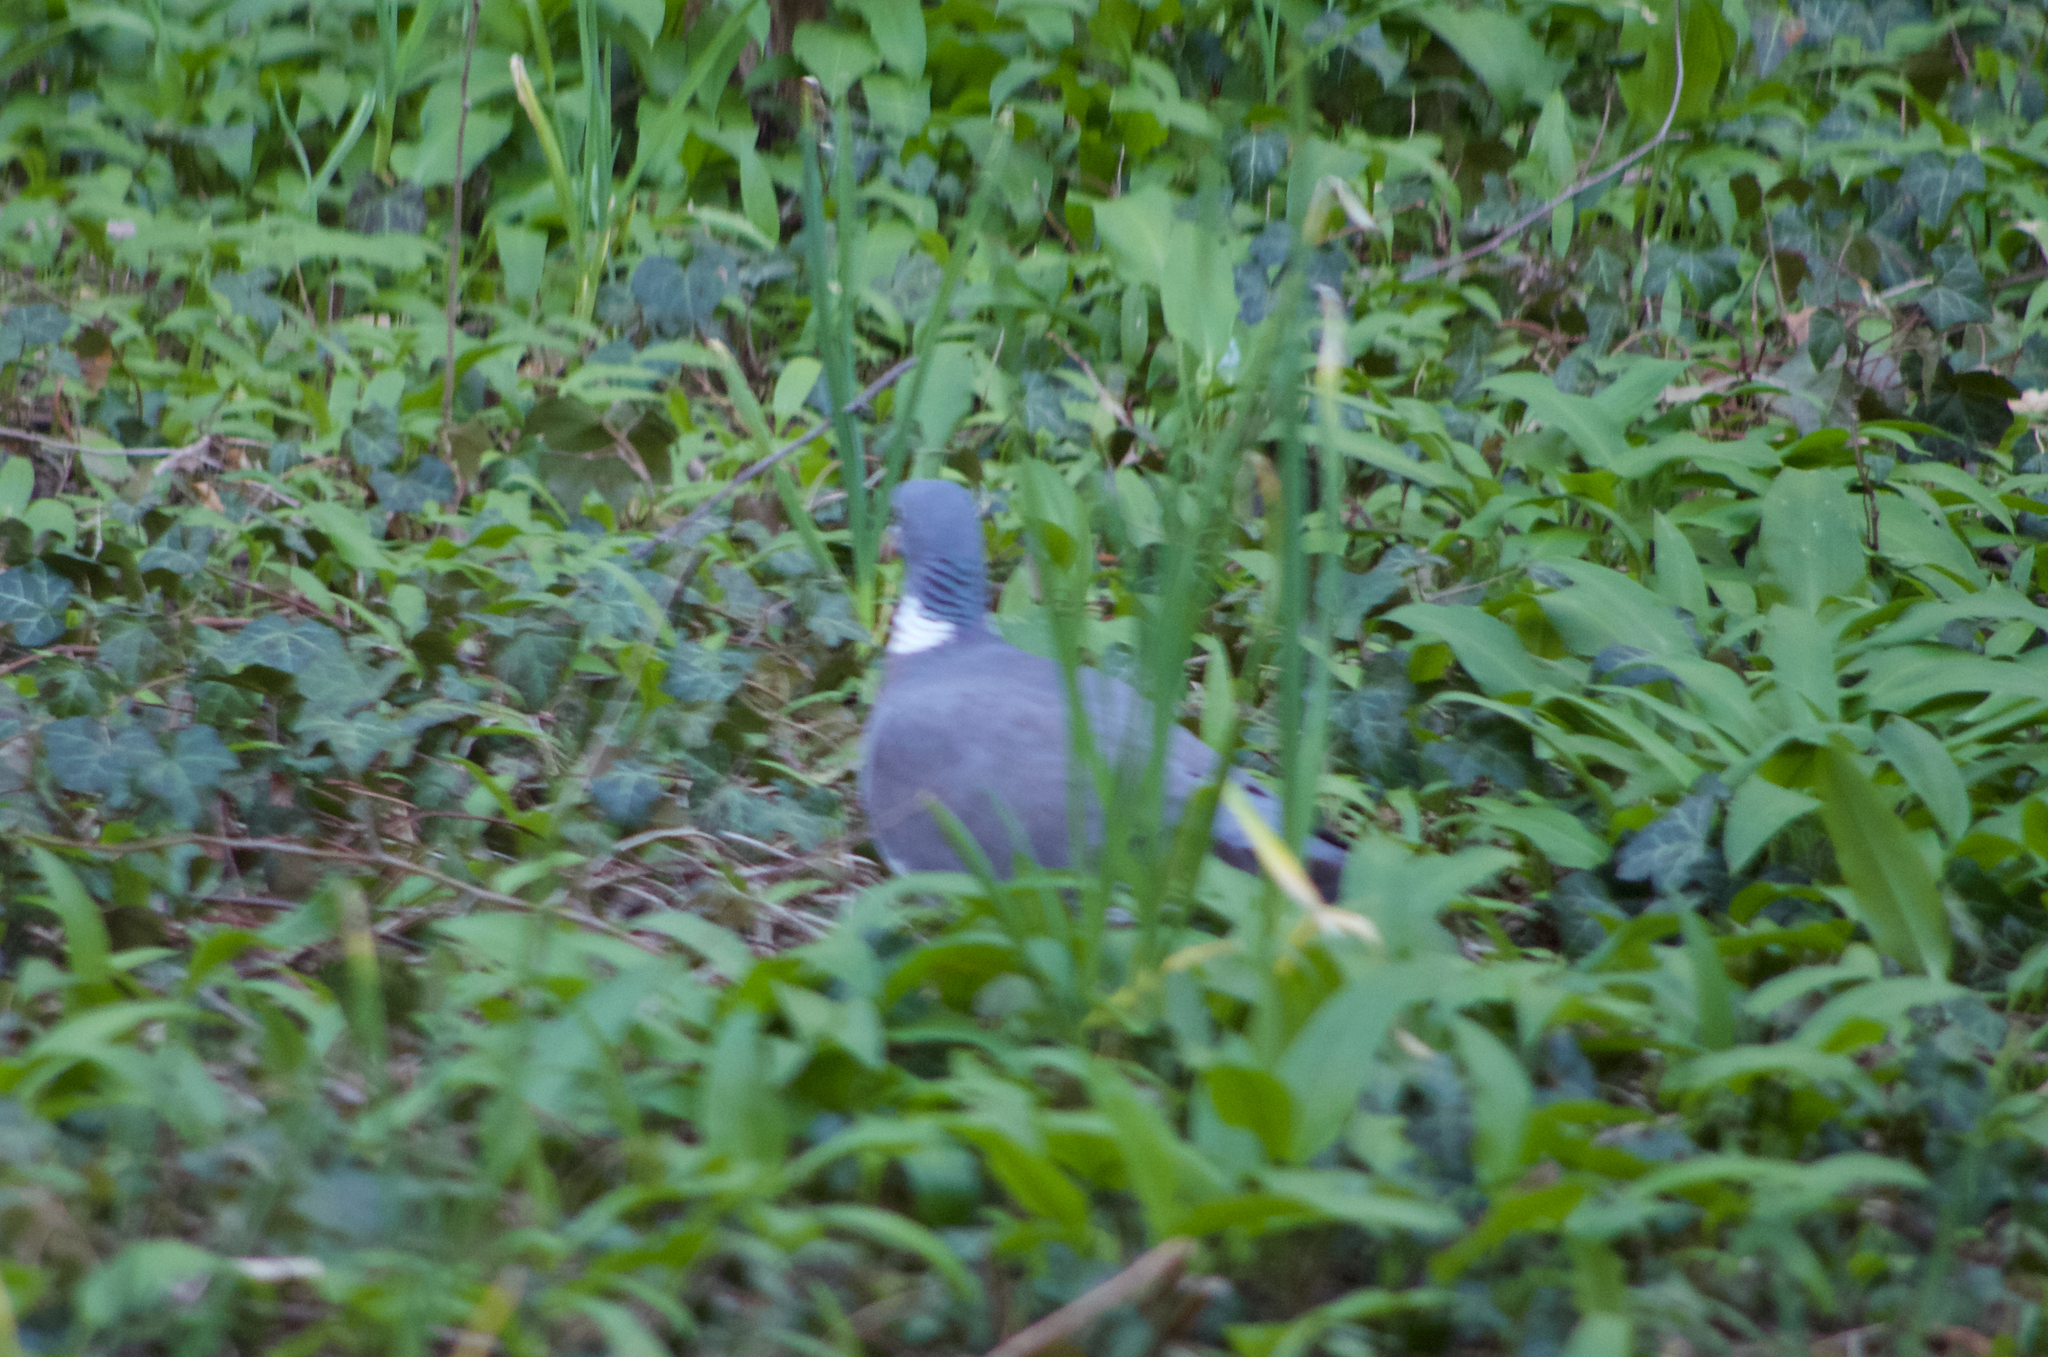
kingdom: Animalia
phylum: Chordata
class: Aves
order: Columbiformes
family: Columbidae
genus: Columba
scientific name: Columba palumbus
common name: Common wood pigeon
